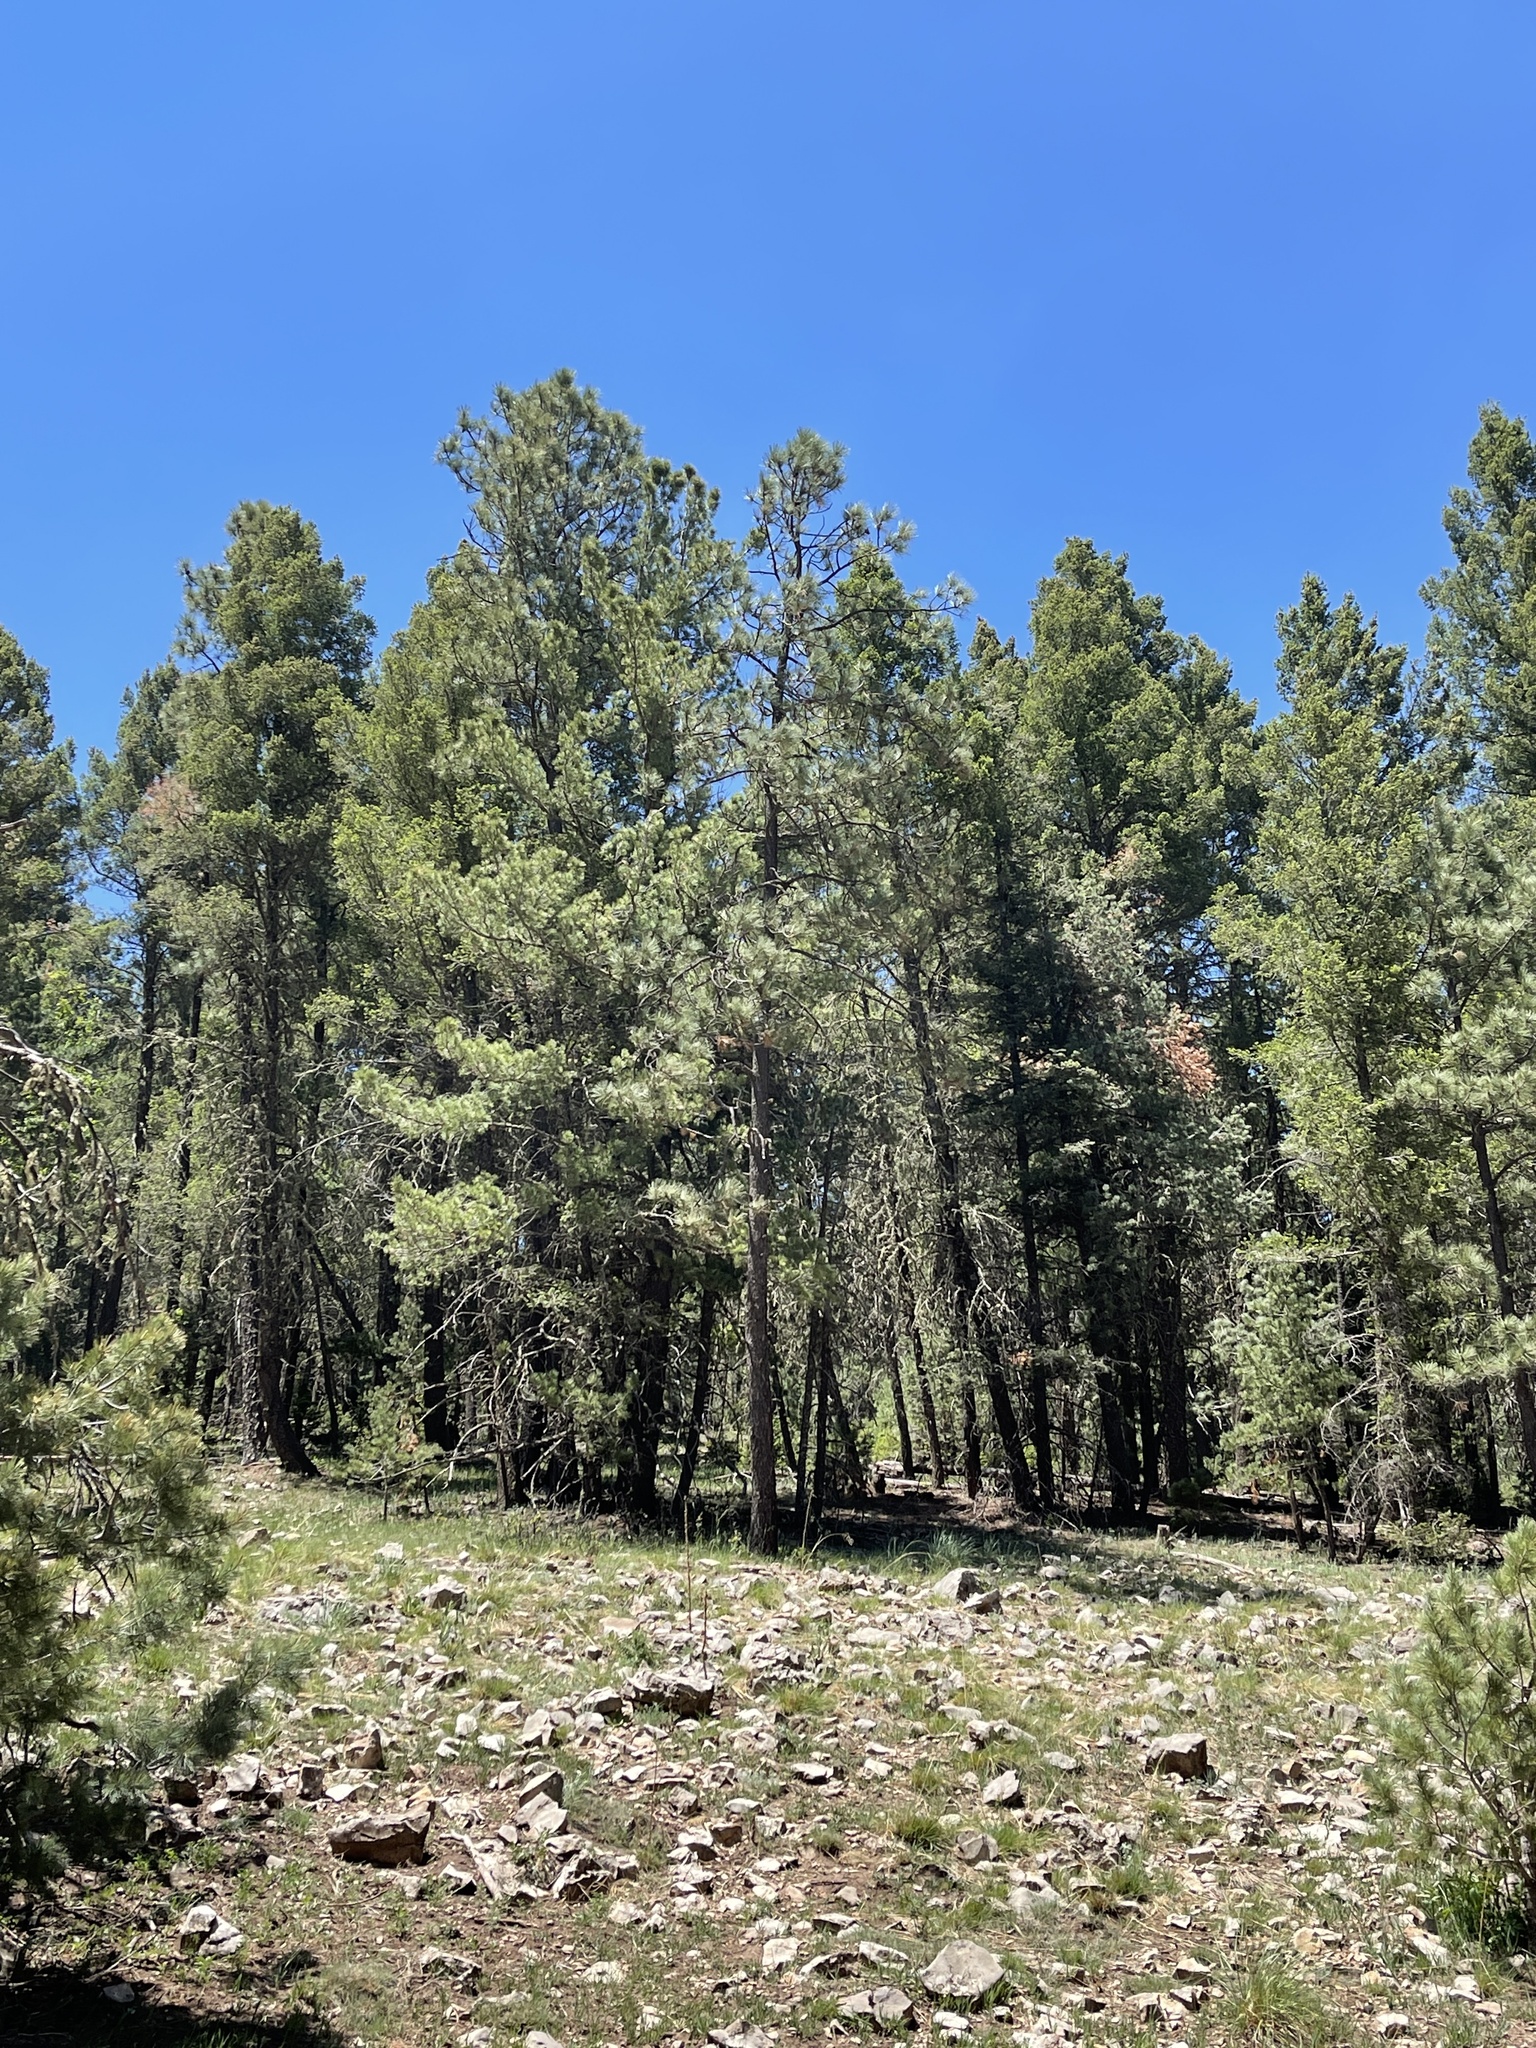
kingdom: Plantae
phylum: Tracheophyta
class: Pinopsida
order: Pinales
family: Pinaceae
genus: Pinus
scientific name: Pinus ponderosa
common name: Western yellow-pine
